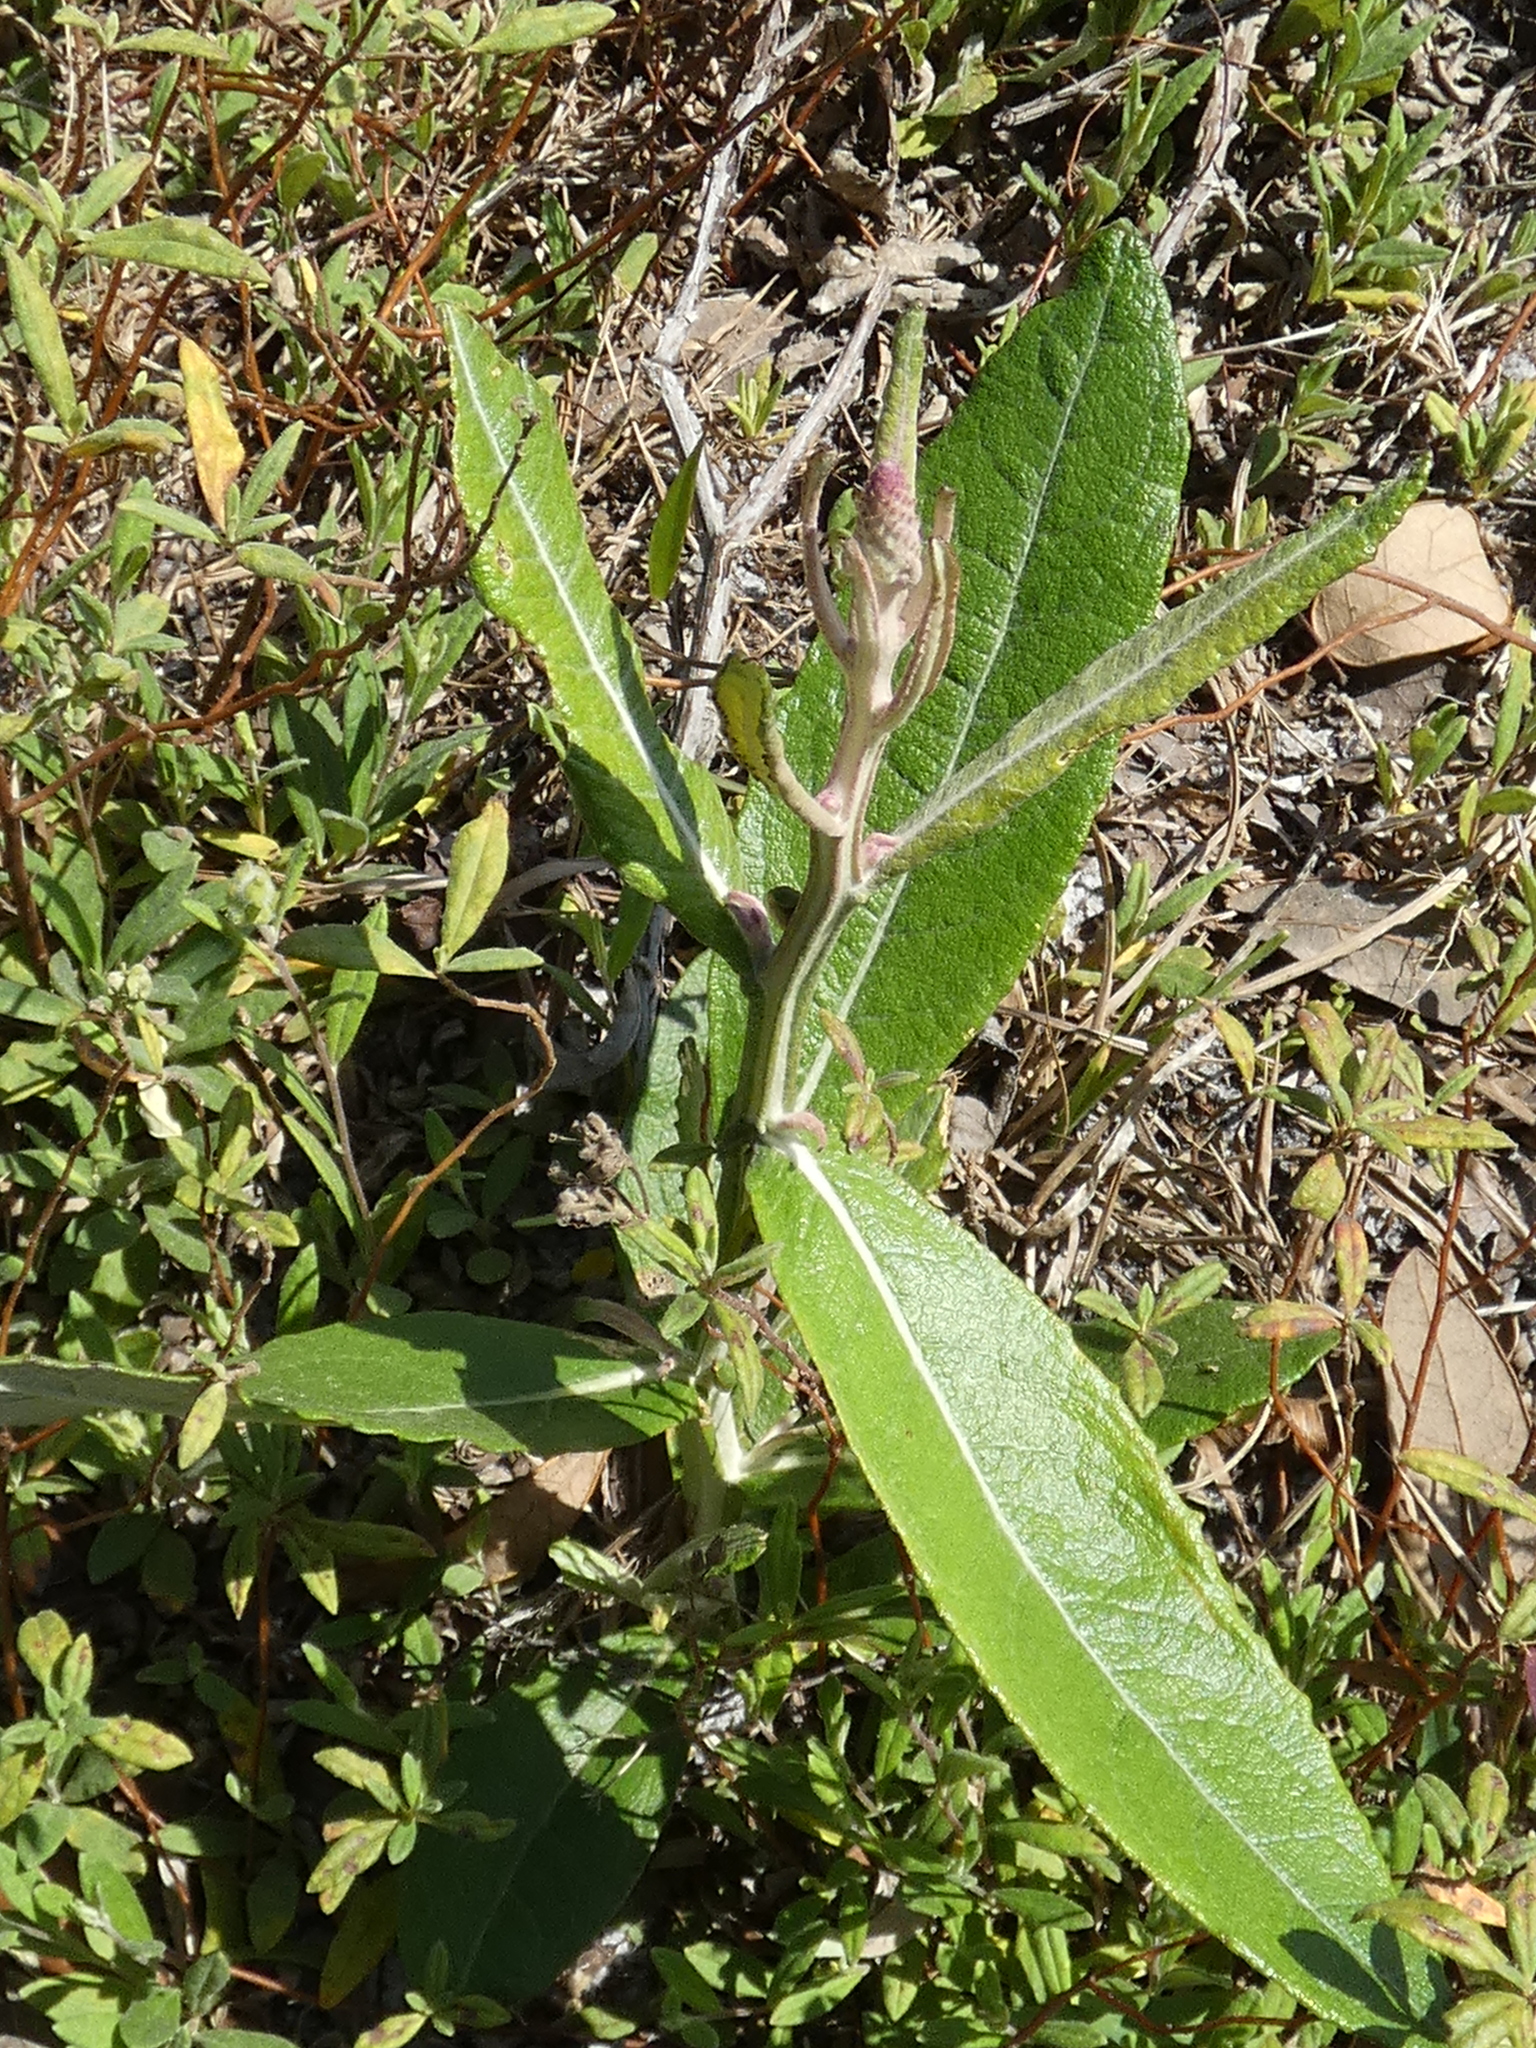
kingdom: Plantae
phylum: Tracheophyta
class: Magnoliopsida
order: Asterales
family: Asteraceae
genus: Pterocaulon
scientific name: Pterocaulon pycnostachyum
